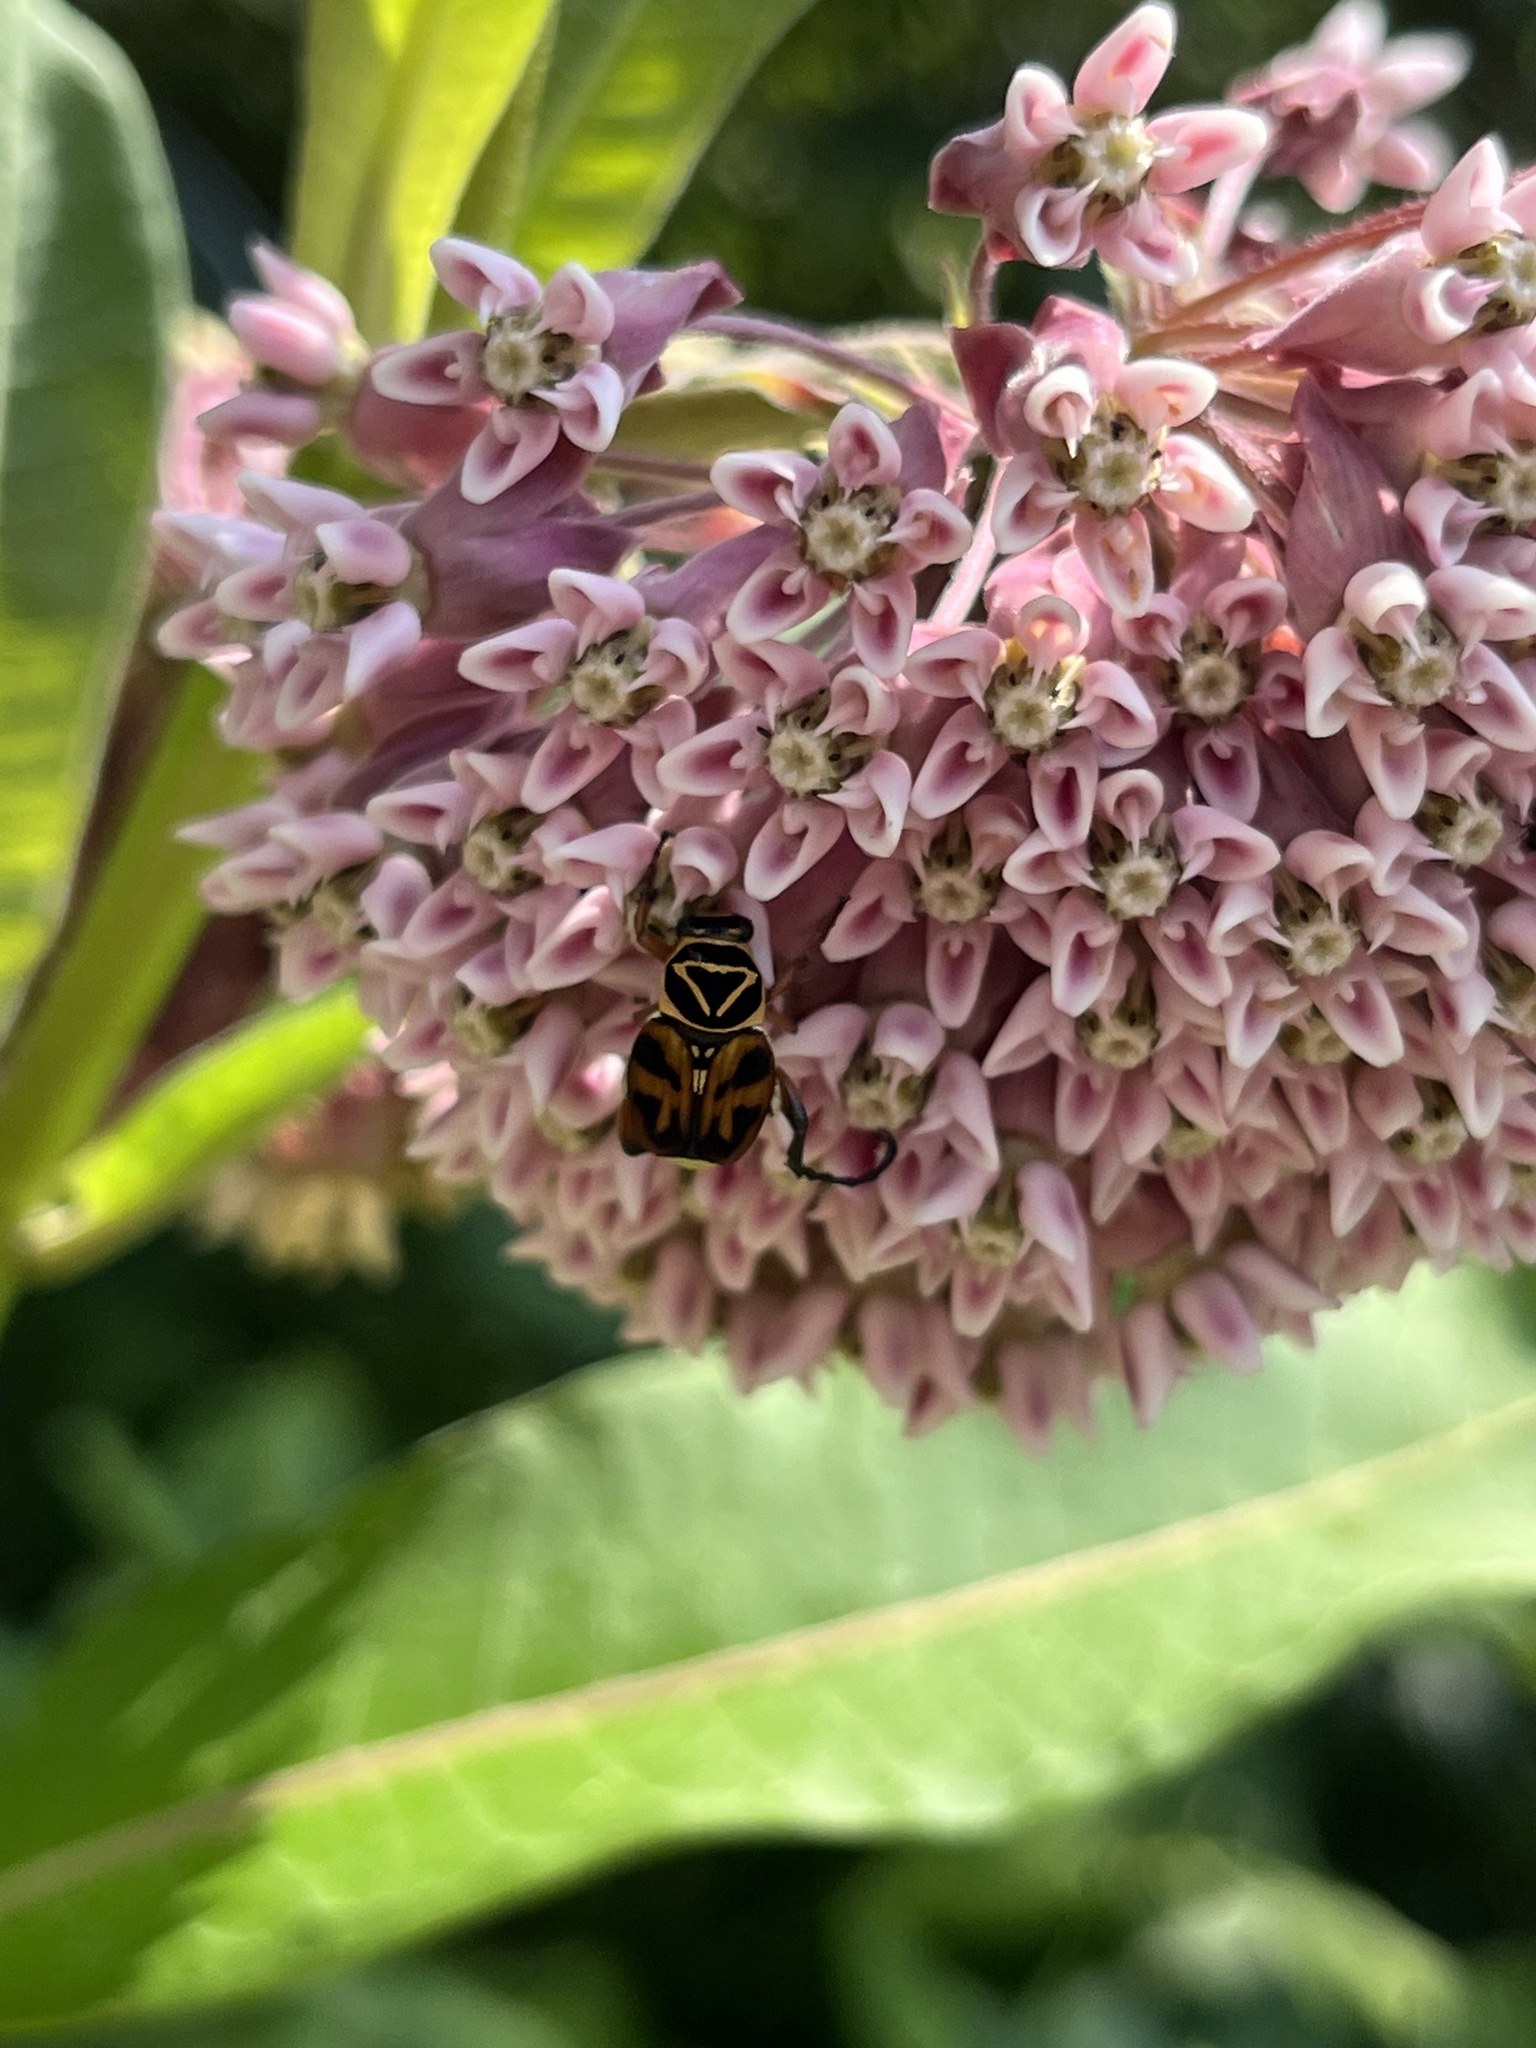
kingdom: Animalia
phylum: Arthropoda
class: Insecta
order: Coleoptera
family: Scarabaeidae
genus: Trigonopeltastes
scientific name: Trigonopeltastes delta
